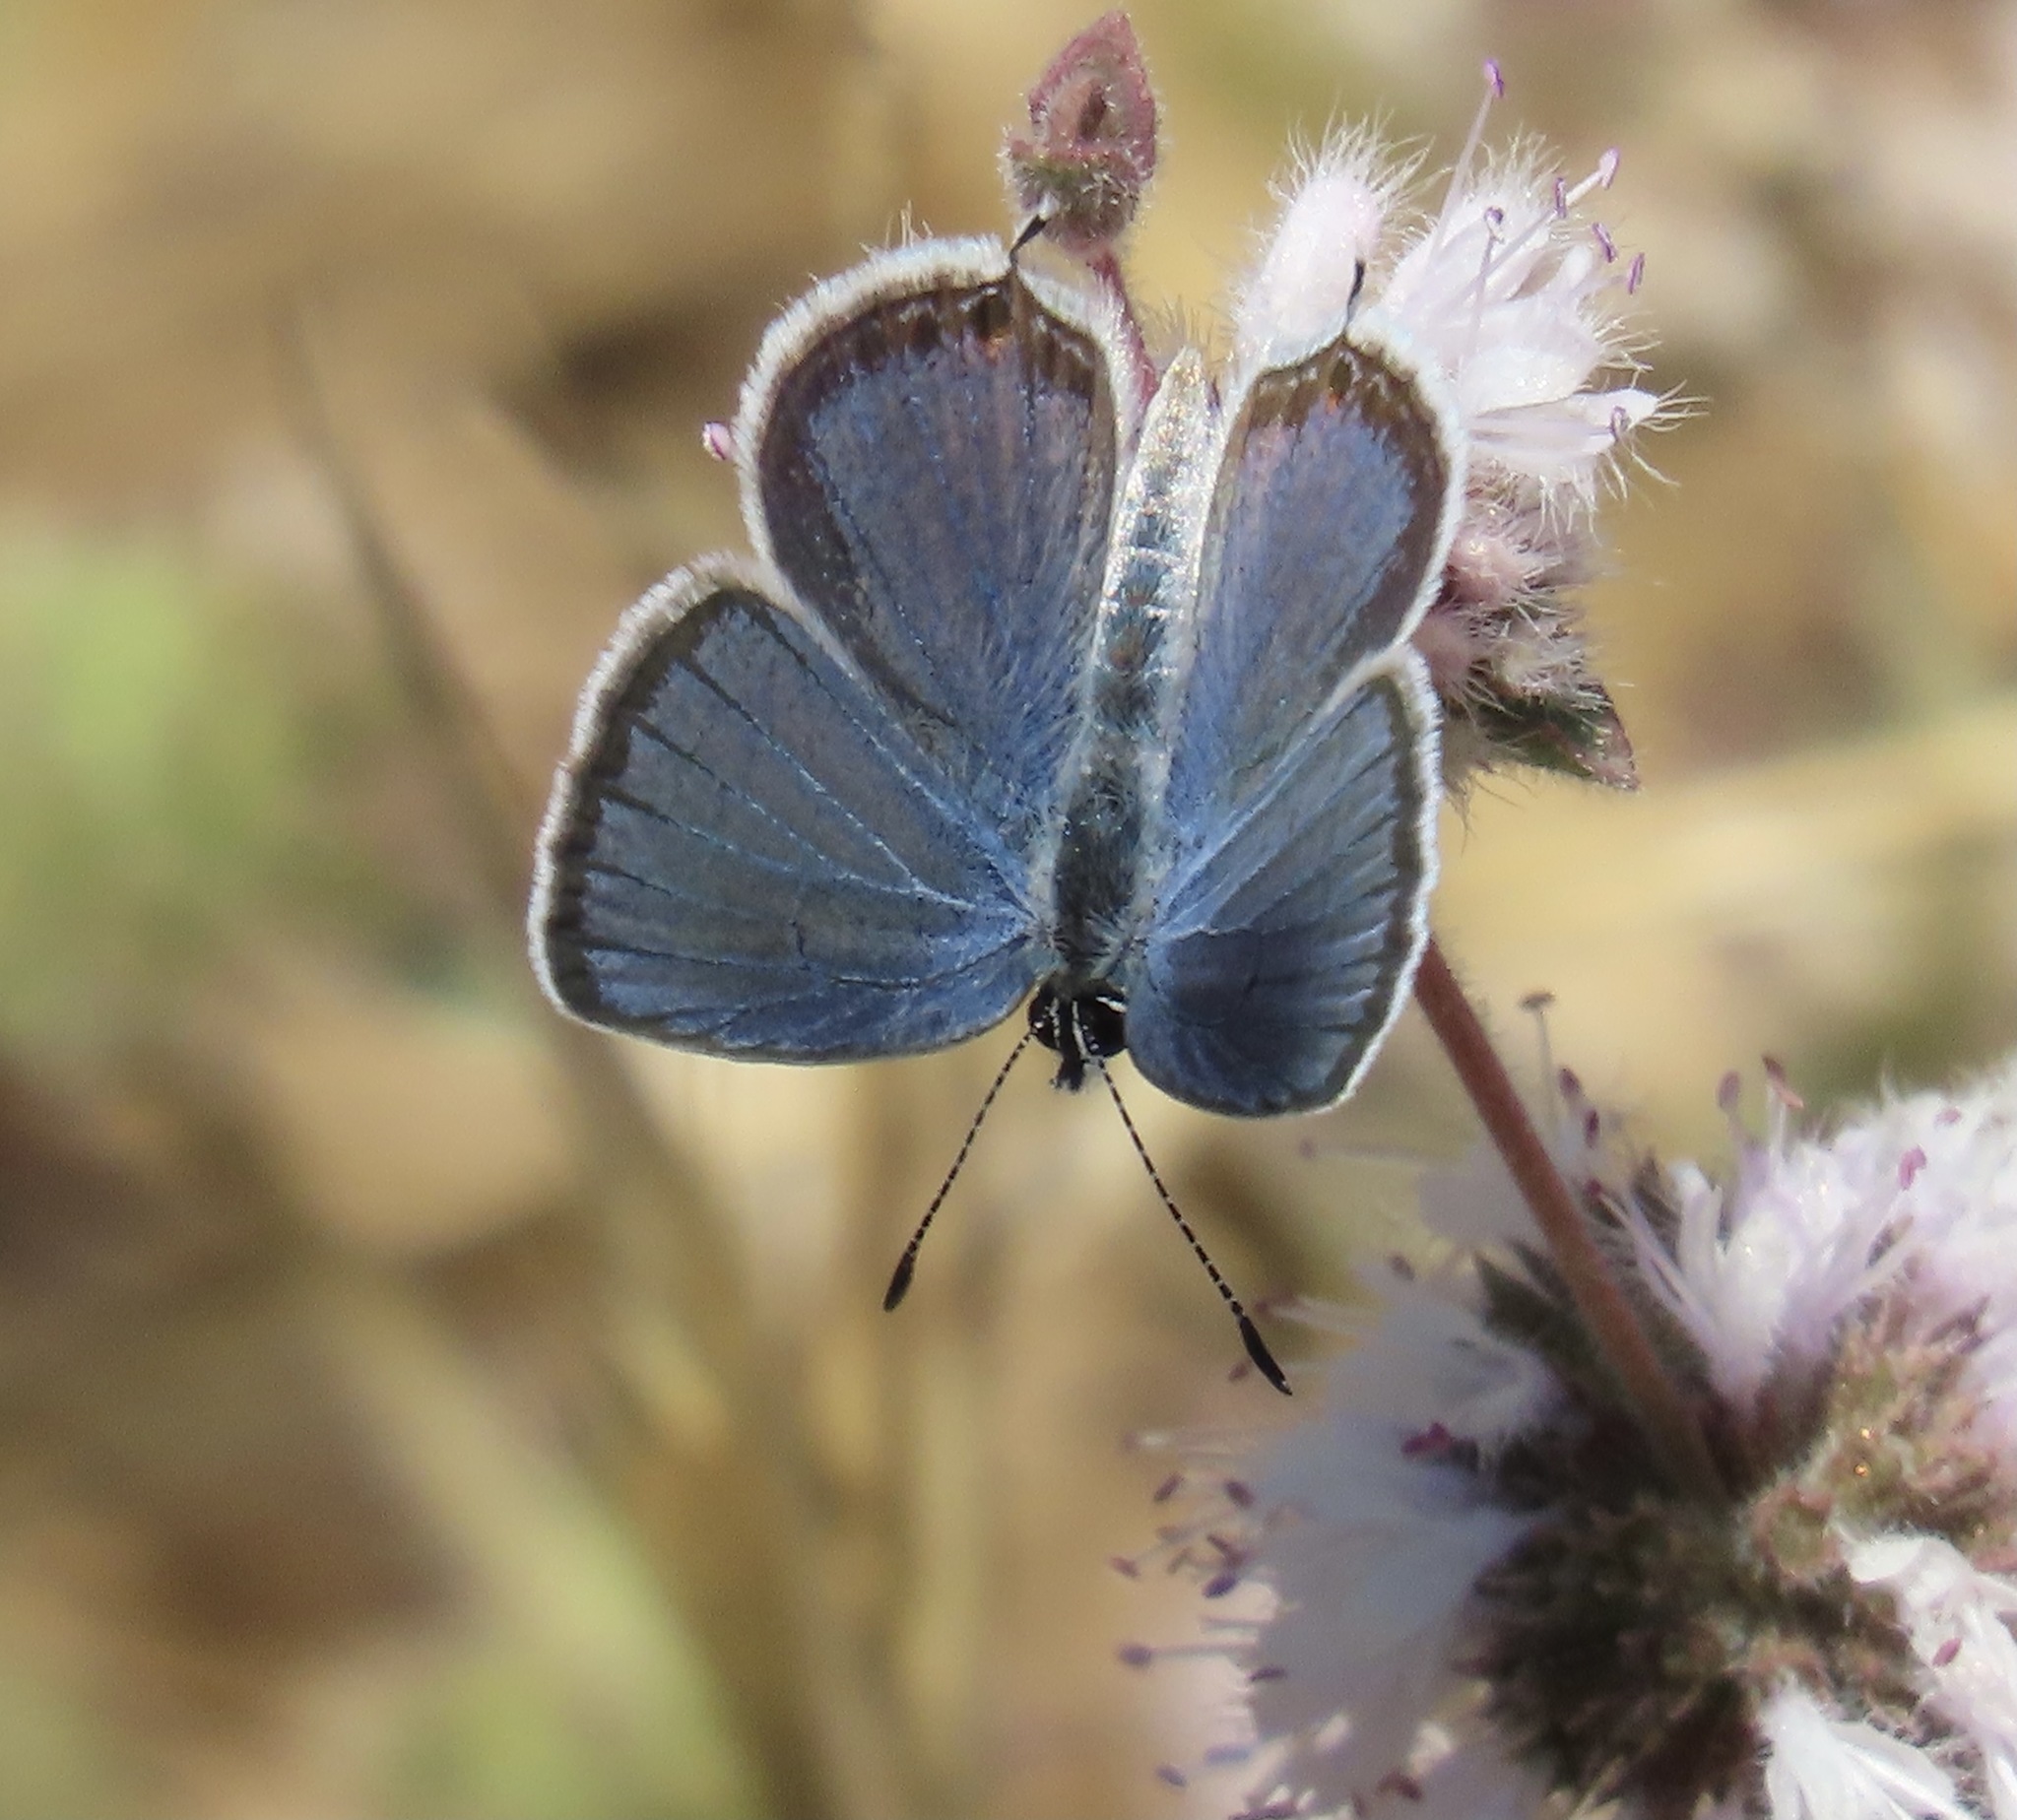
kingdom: Animalia
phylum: Arthropoda
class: Insecta
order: Lepidoptera
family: Lycaenidae
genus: Elkalyce
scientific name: Elkalyce comyntas
